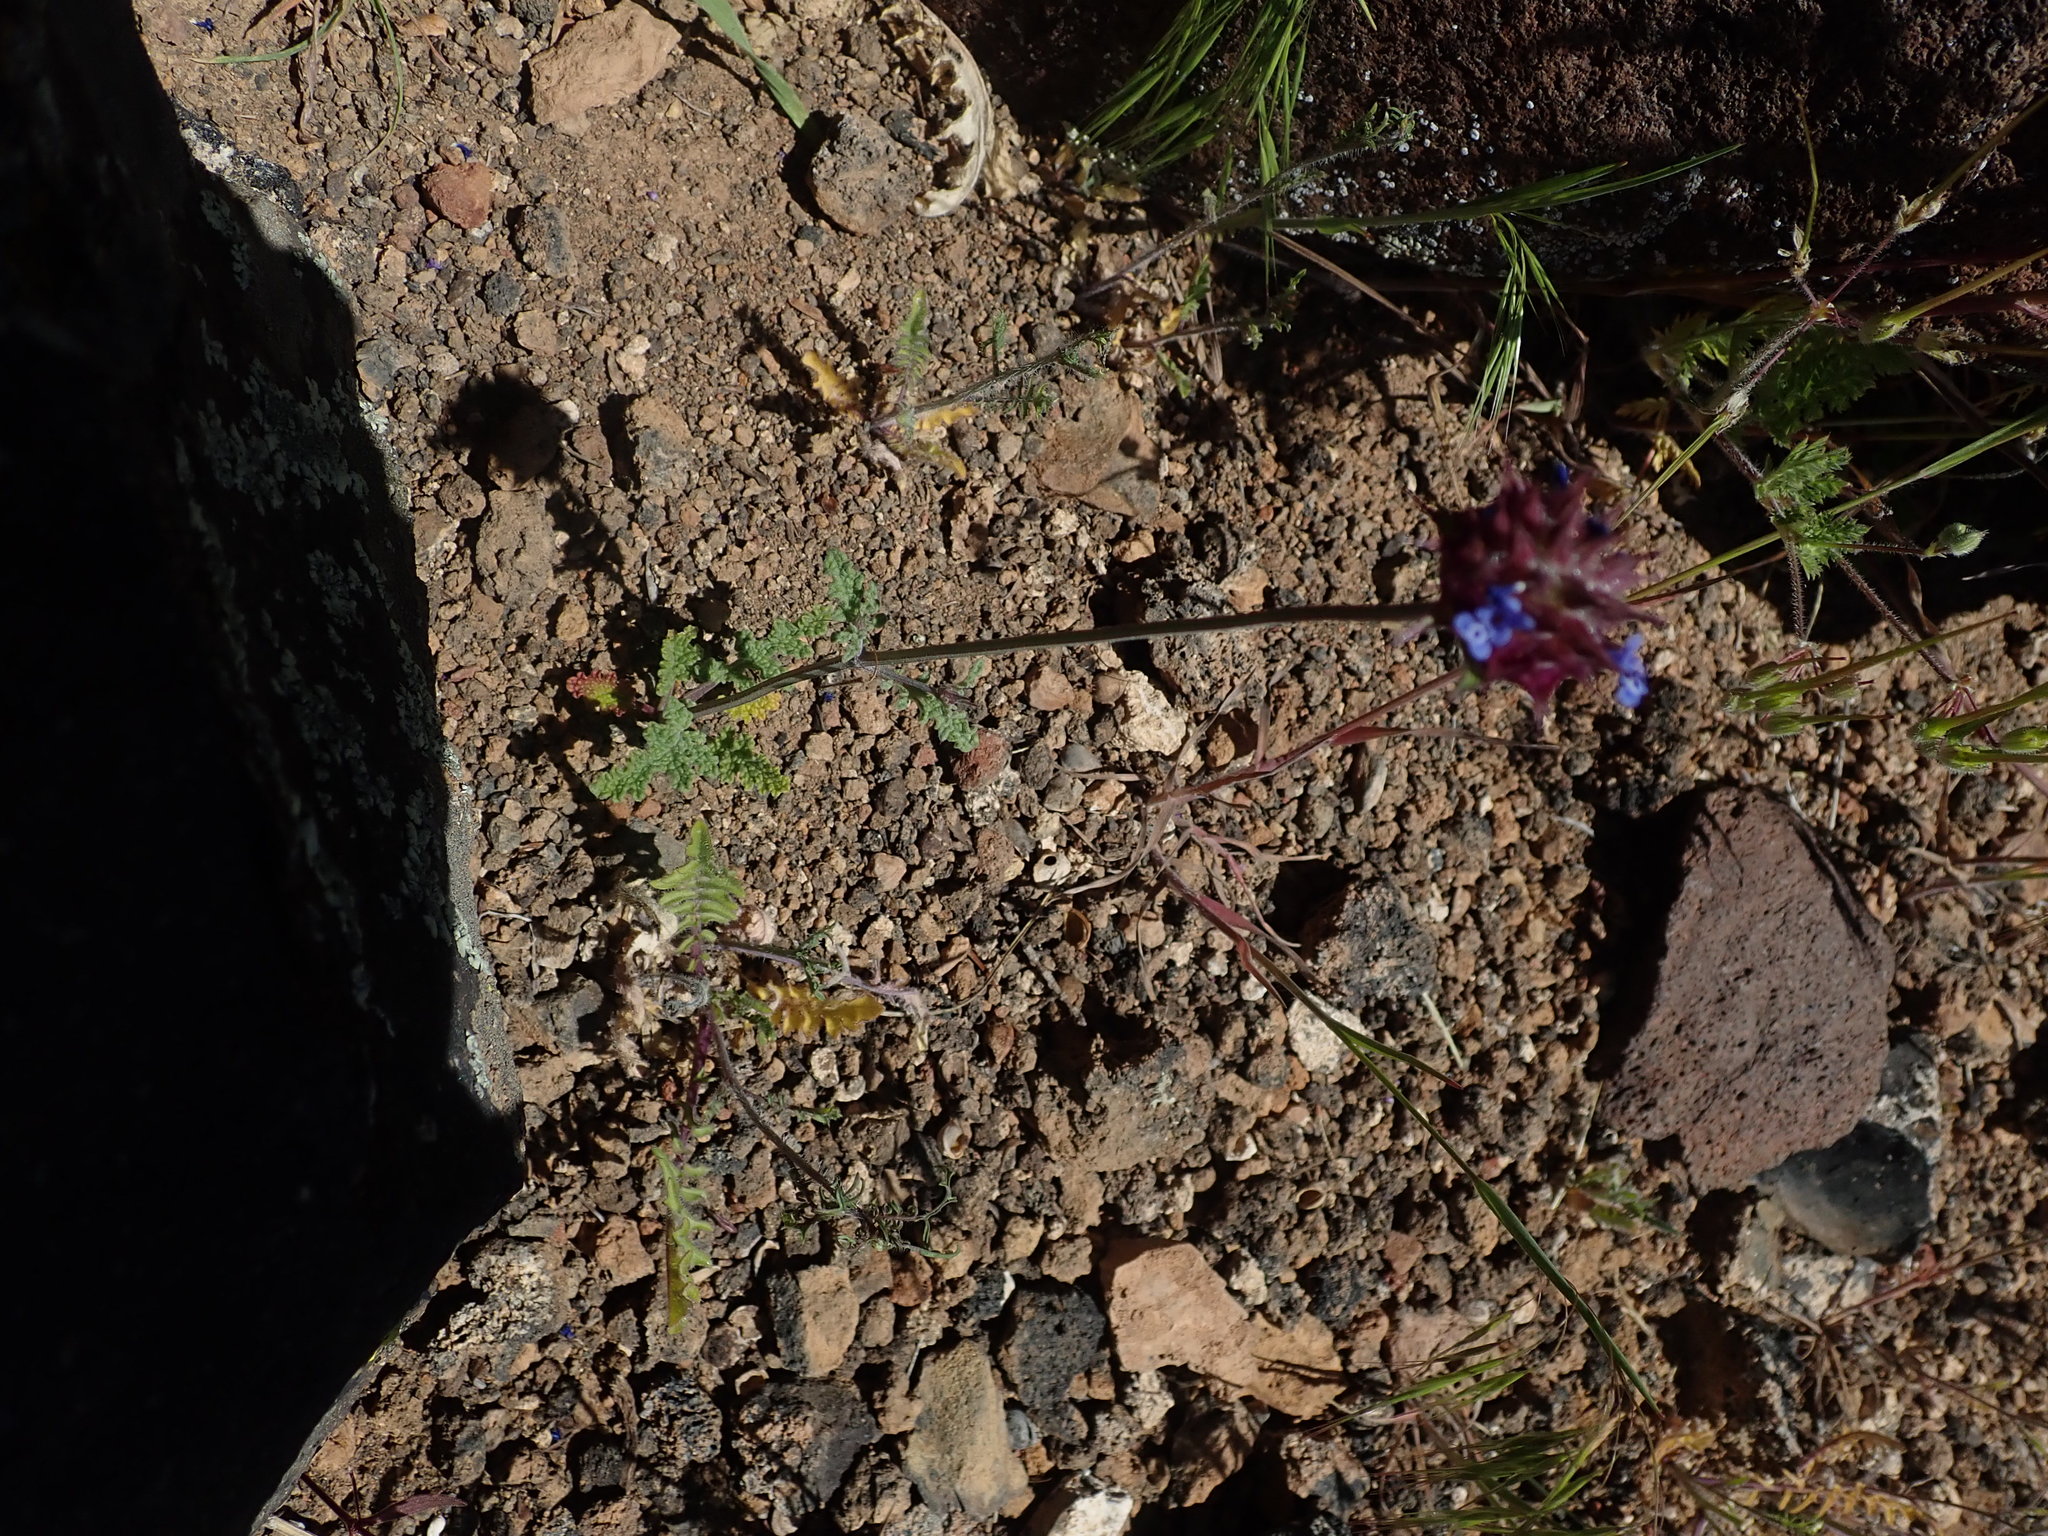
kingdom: Plantae
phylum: Tracheophyta
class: Magnoliopsida
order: Lamiales
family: Lamiaceae
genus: Salvia
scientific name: Salvia columbariae
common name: Chia
